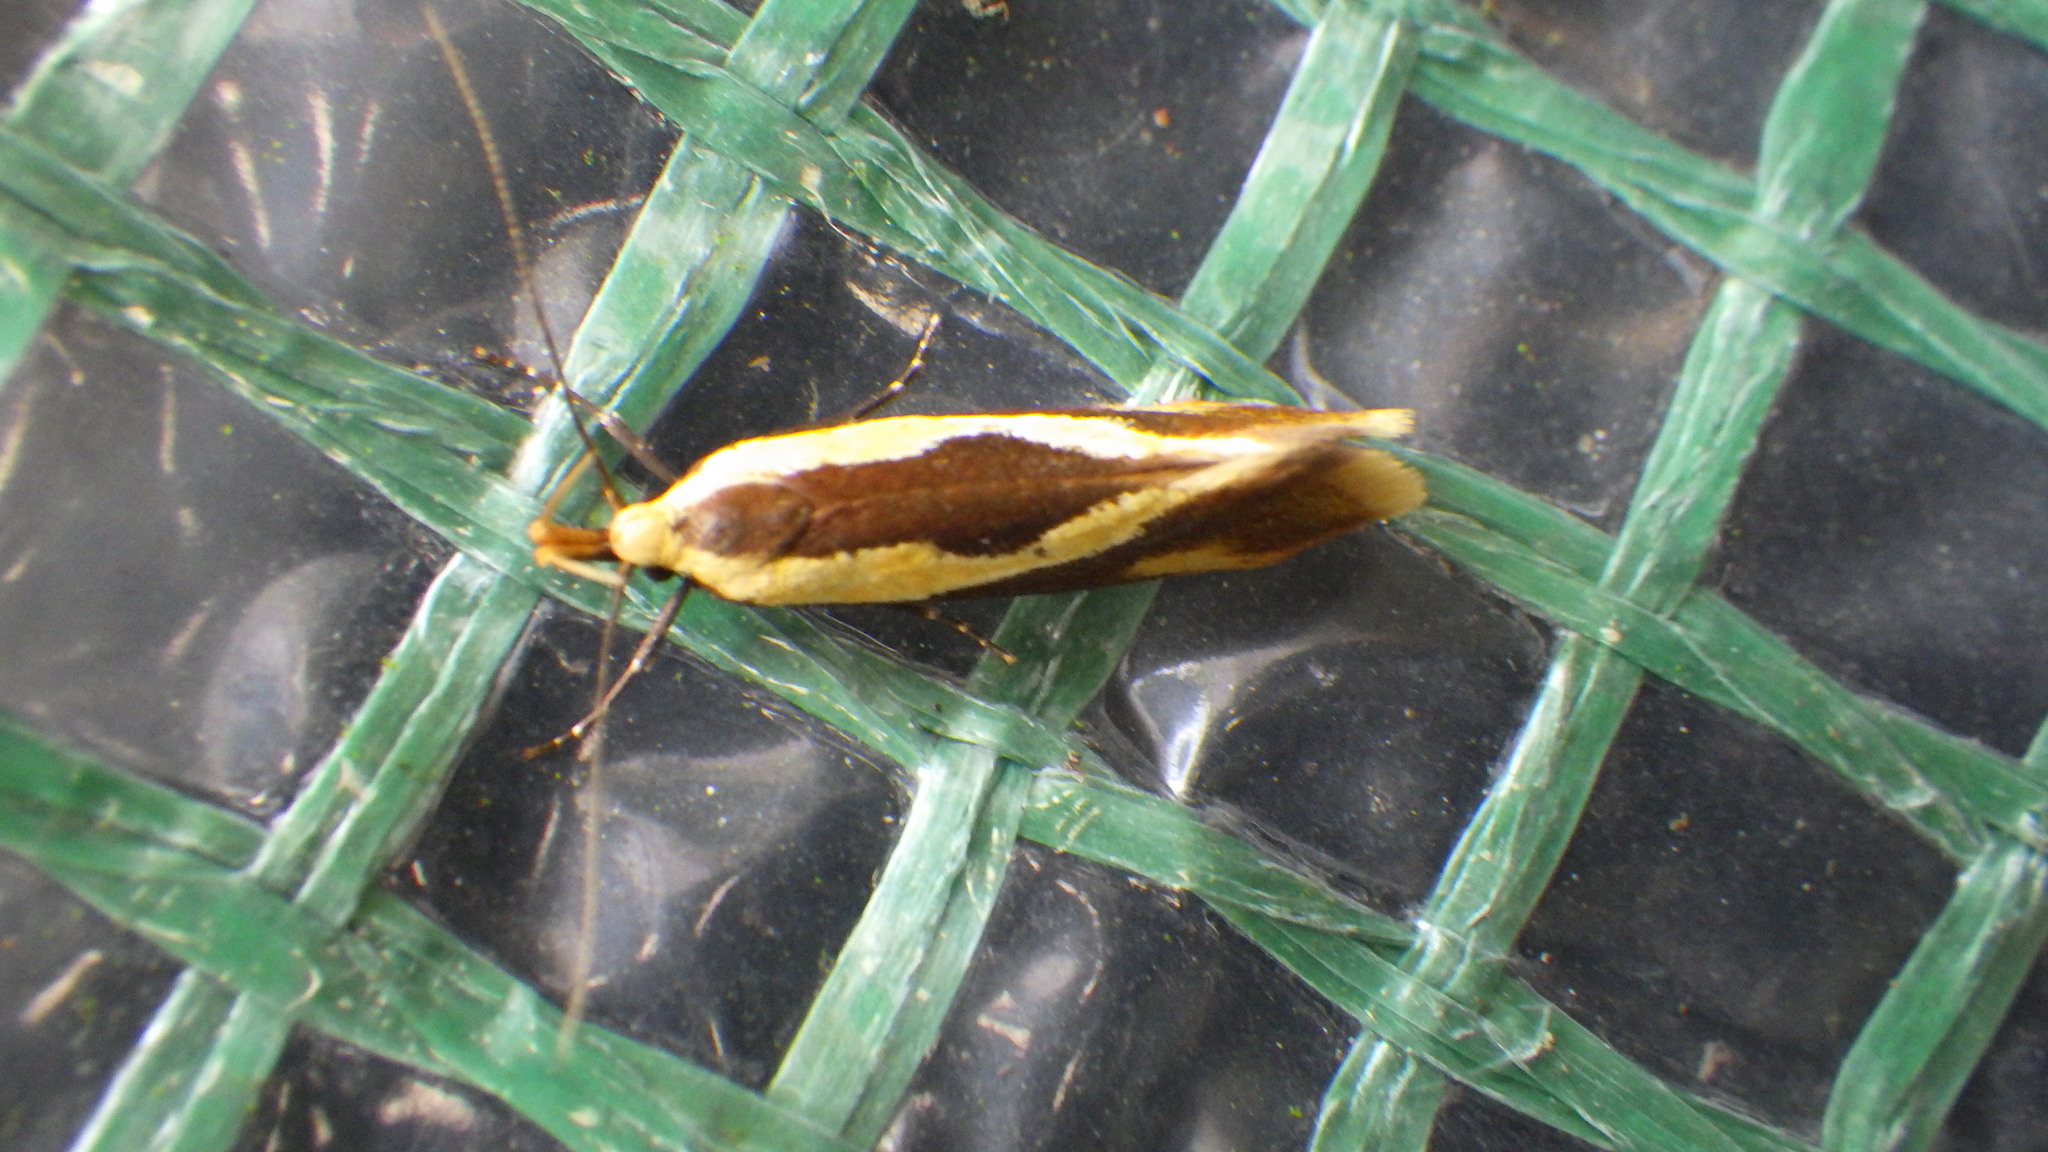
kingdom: Animalia
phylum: Arthropoda
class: Insecta
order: Lepidoptera
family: Oecophoridae
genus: Harpella
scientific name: Harpella forficella
